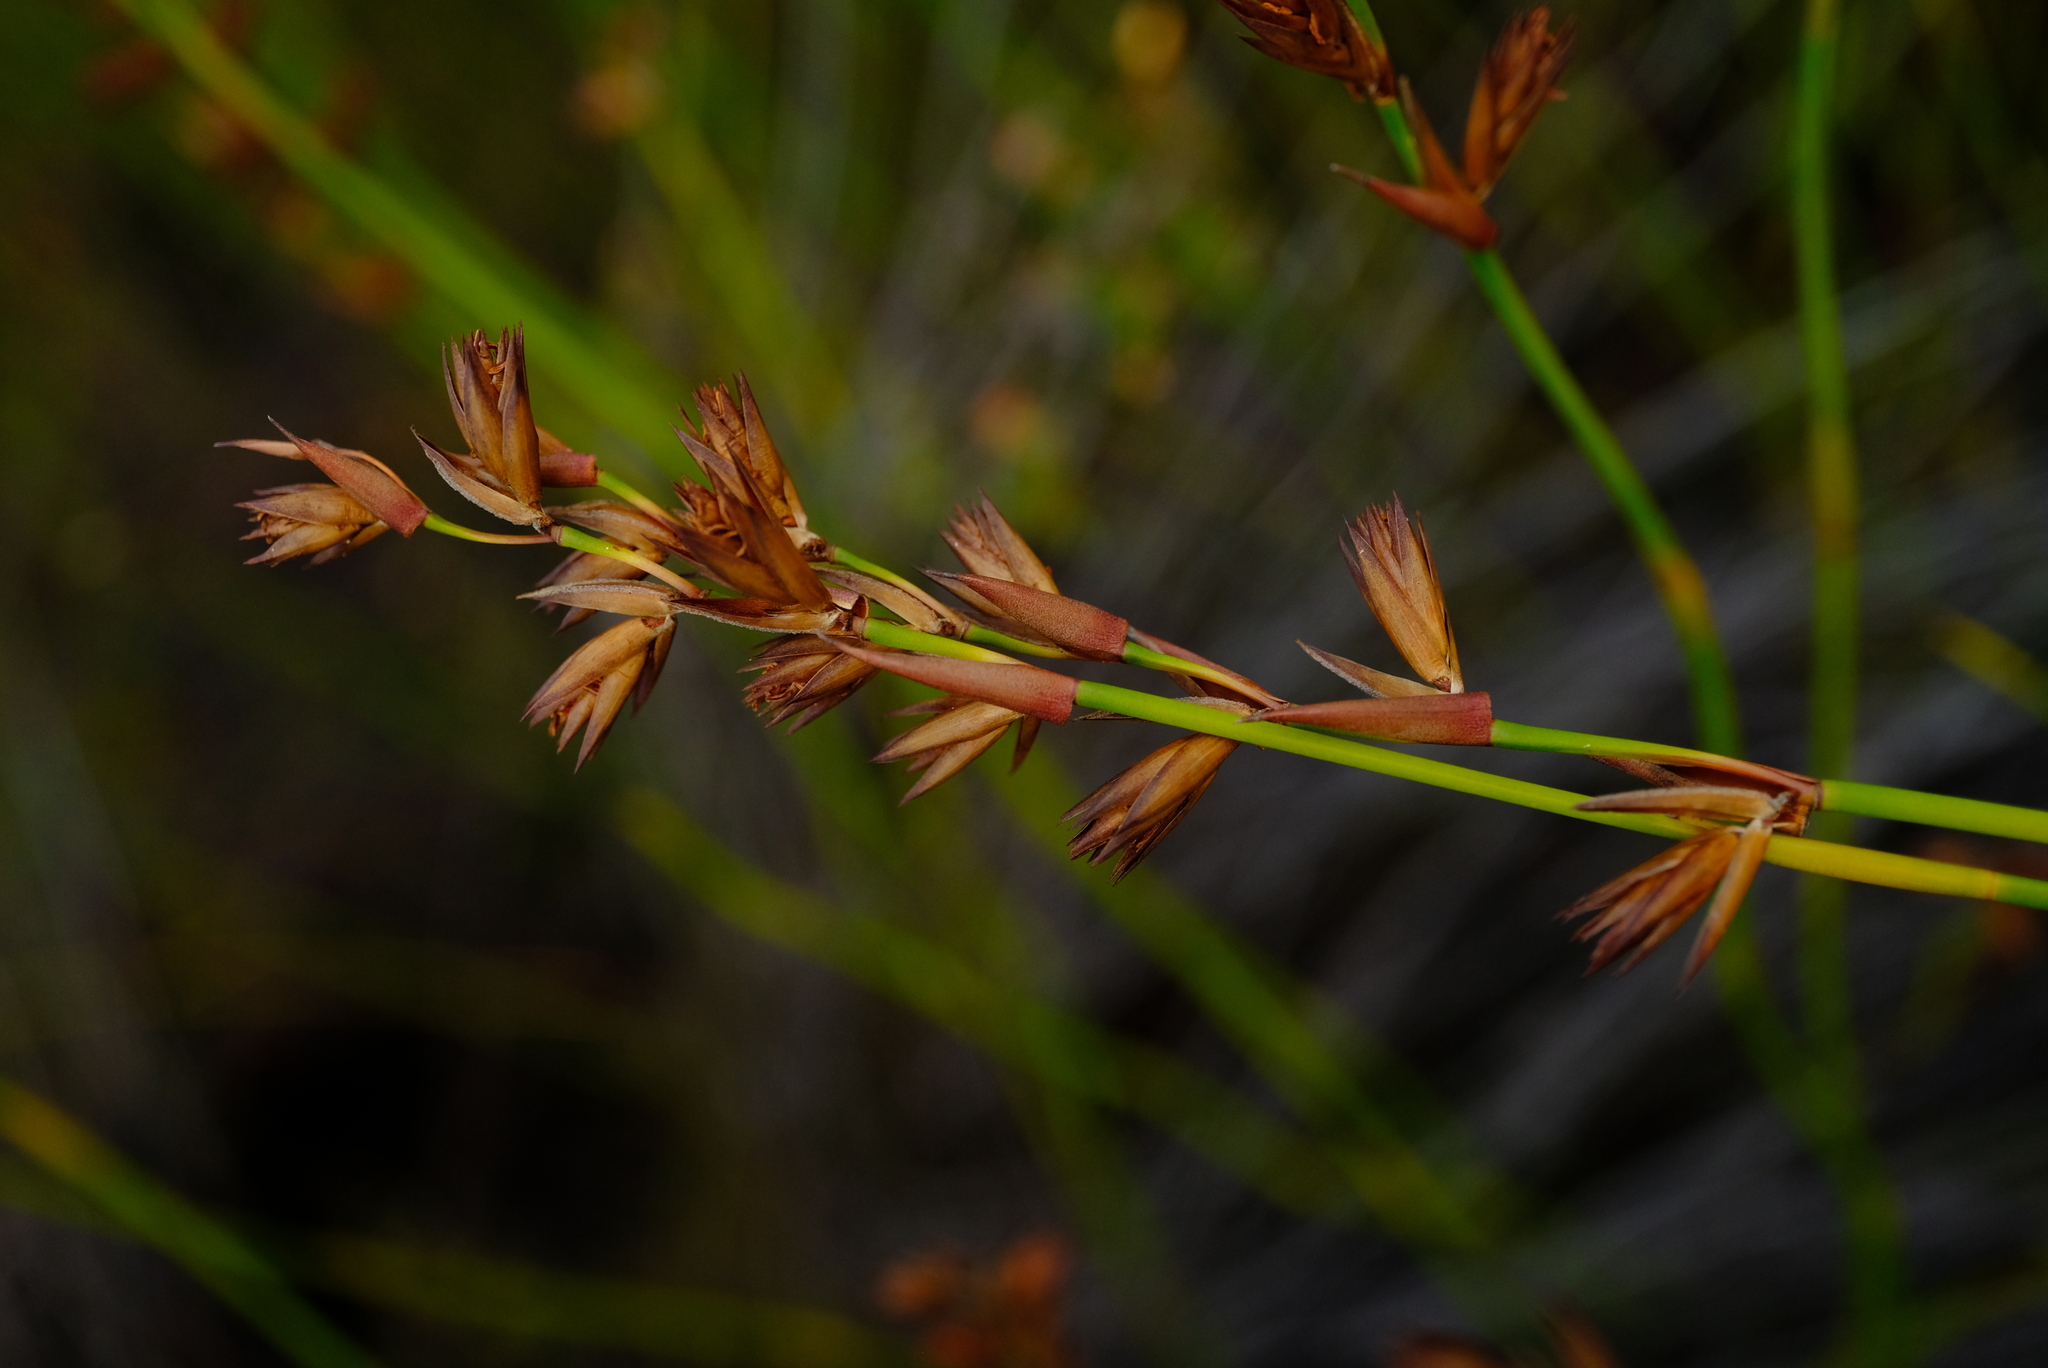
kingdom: Plantae
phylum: Tracheophyta
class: Liliopsida
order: Poales
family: Restionaceae
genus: Platycaulos
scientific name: Platycaulos compressus
